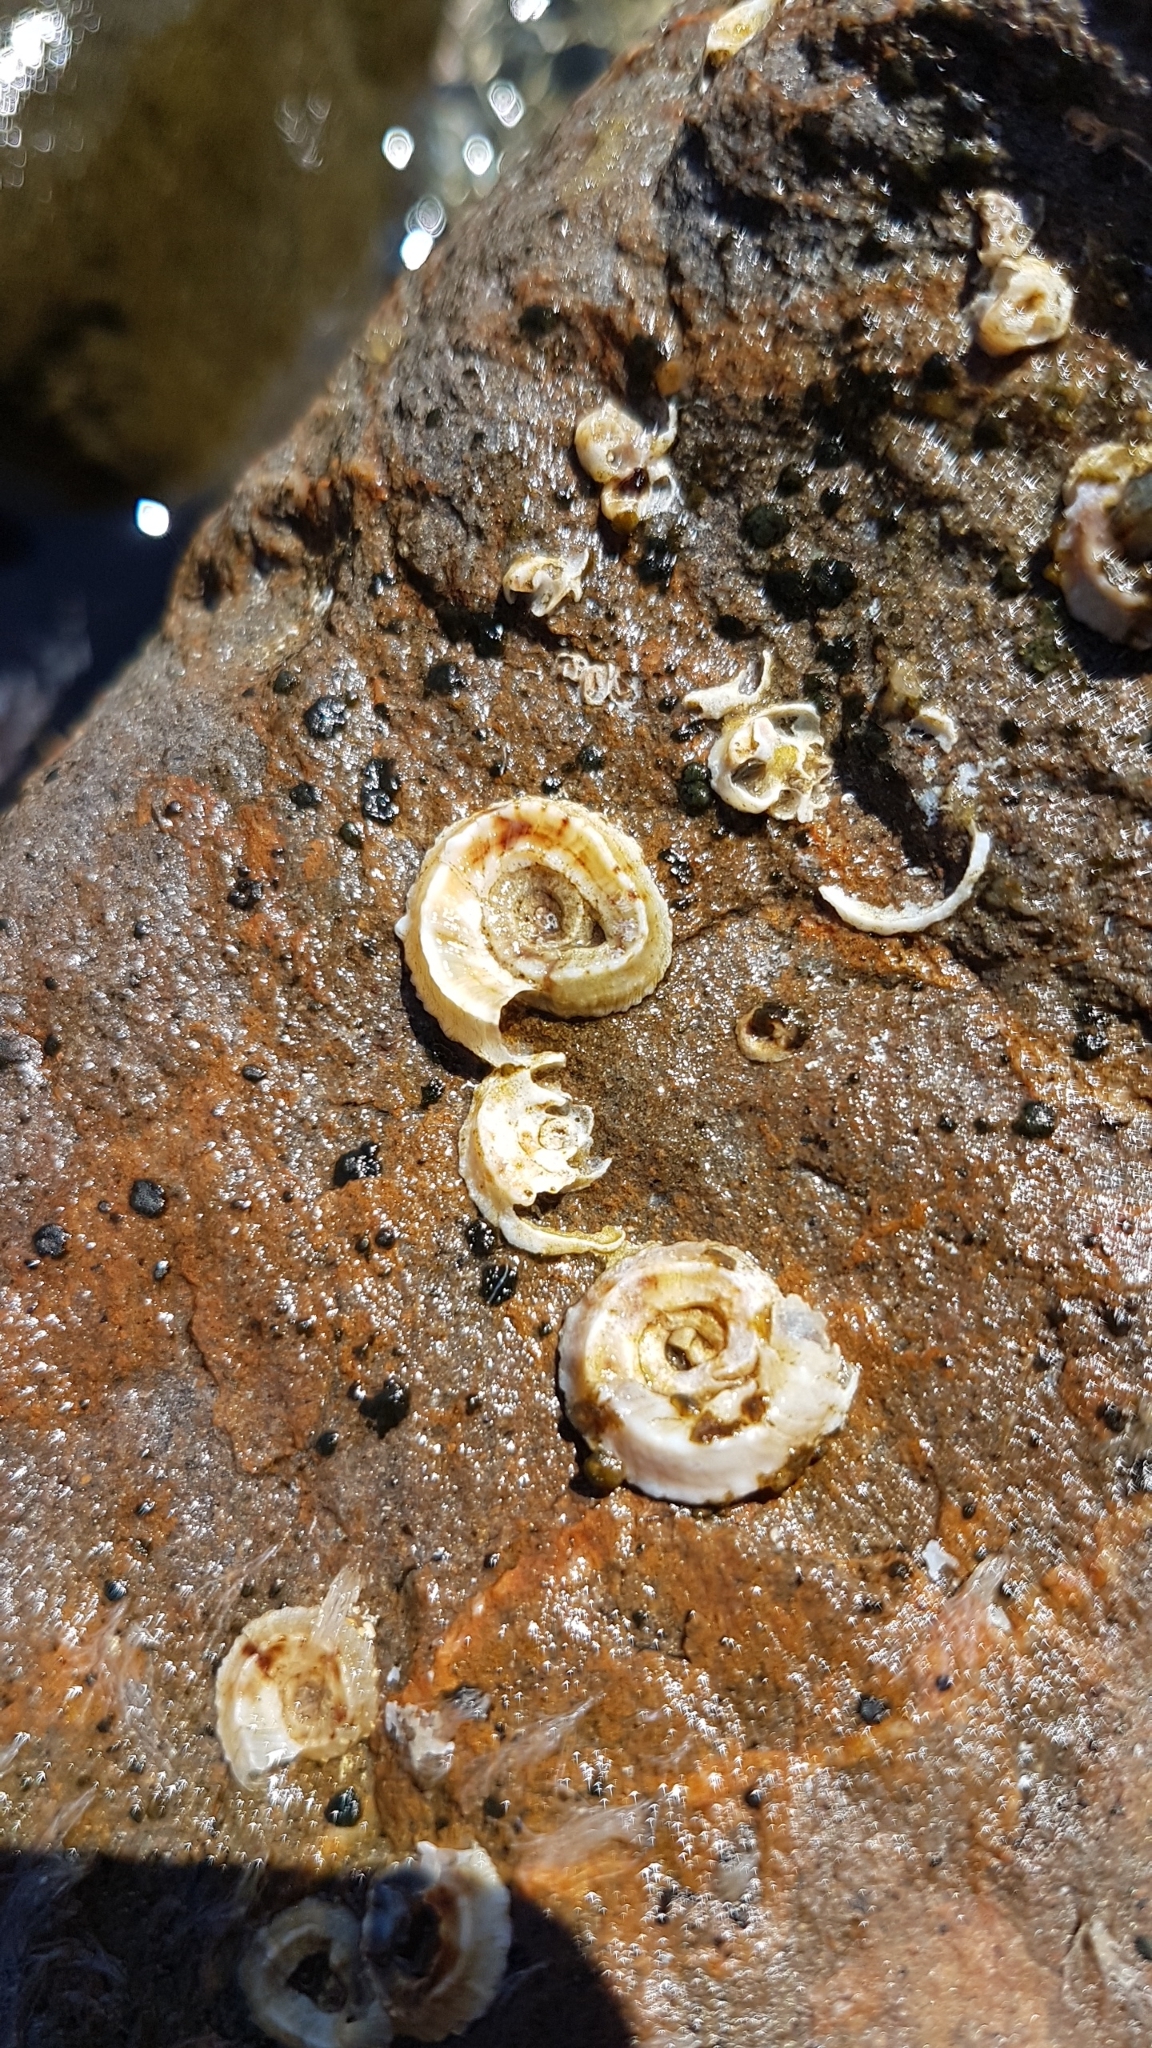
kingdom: Animalia
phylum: Mollusca
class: Gastropoda
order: Littorinimorpha
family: Vermetidae
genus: Vermetus
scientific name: Vermetus triquetrus
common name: Worm shell
